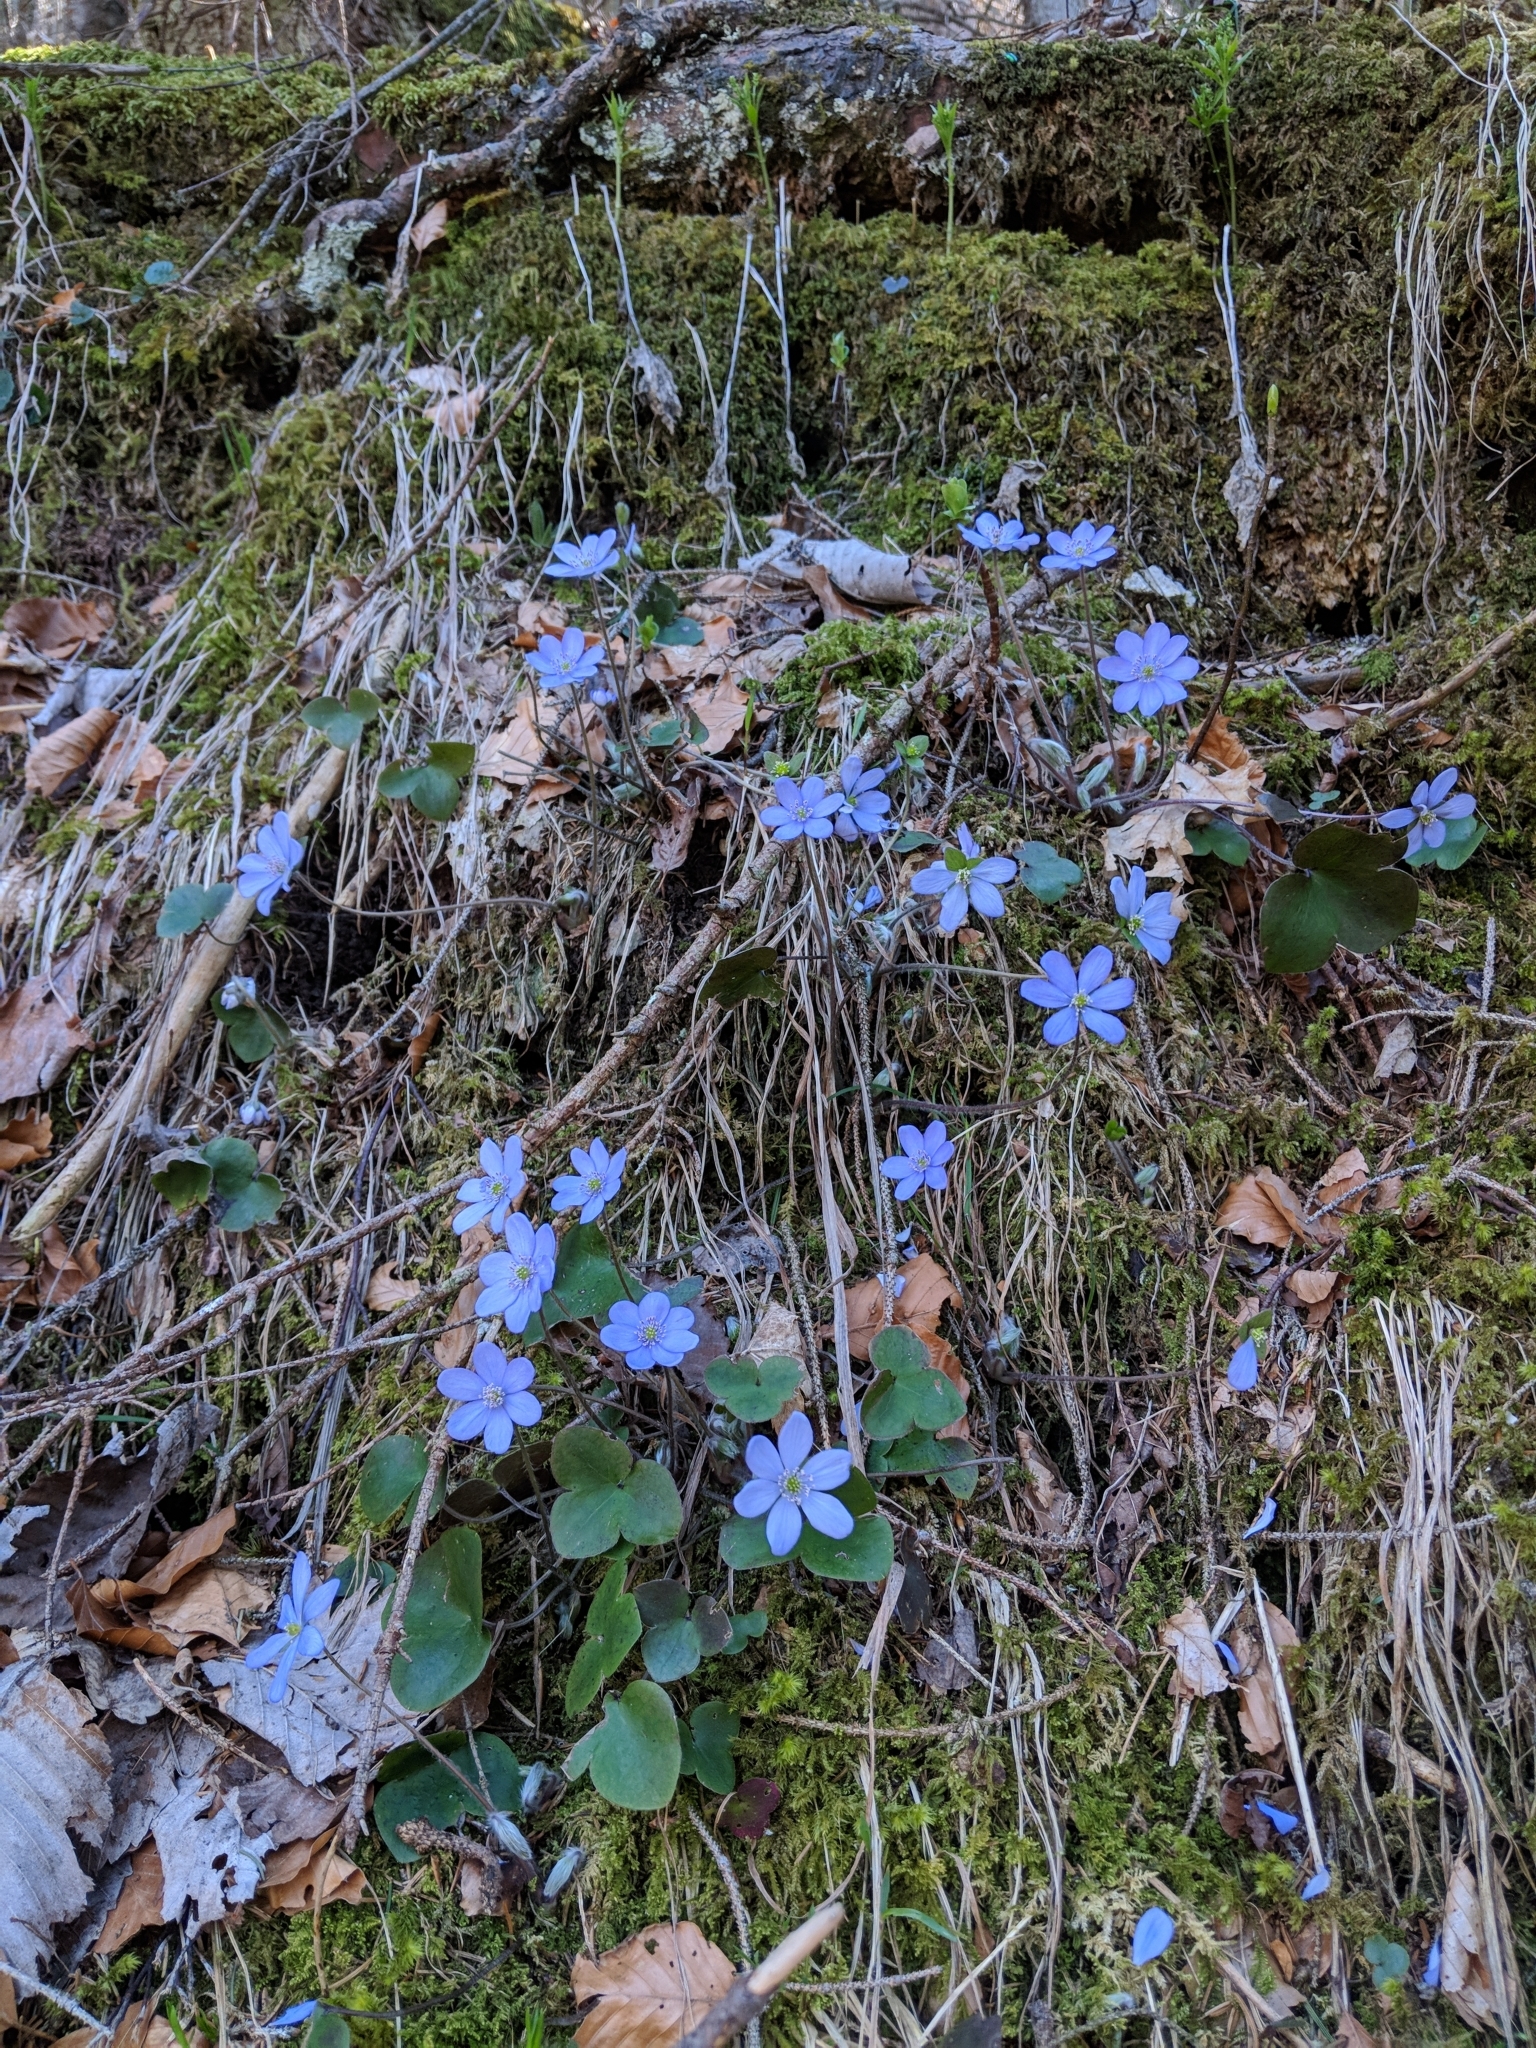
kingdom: Plantae
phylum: Tracheophyta
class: Magnoliopsida
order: Ranunculales
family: Ranunculaceae
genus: Hepatica
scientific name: Hepatica nobilis
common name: Liverleaf
